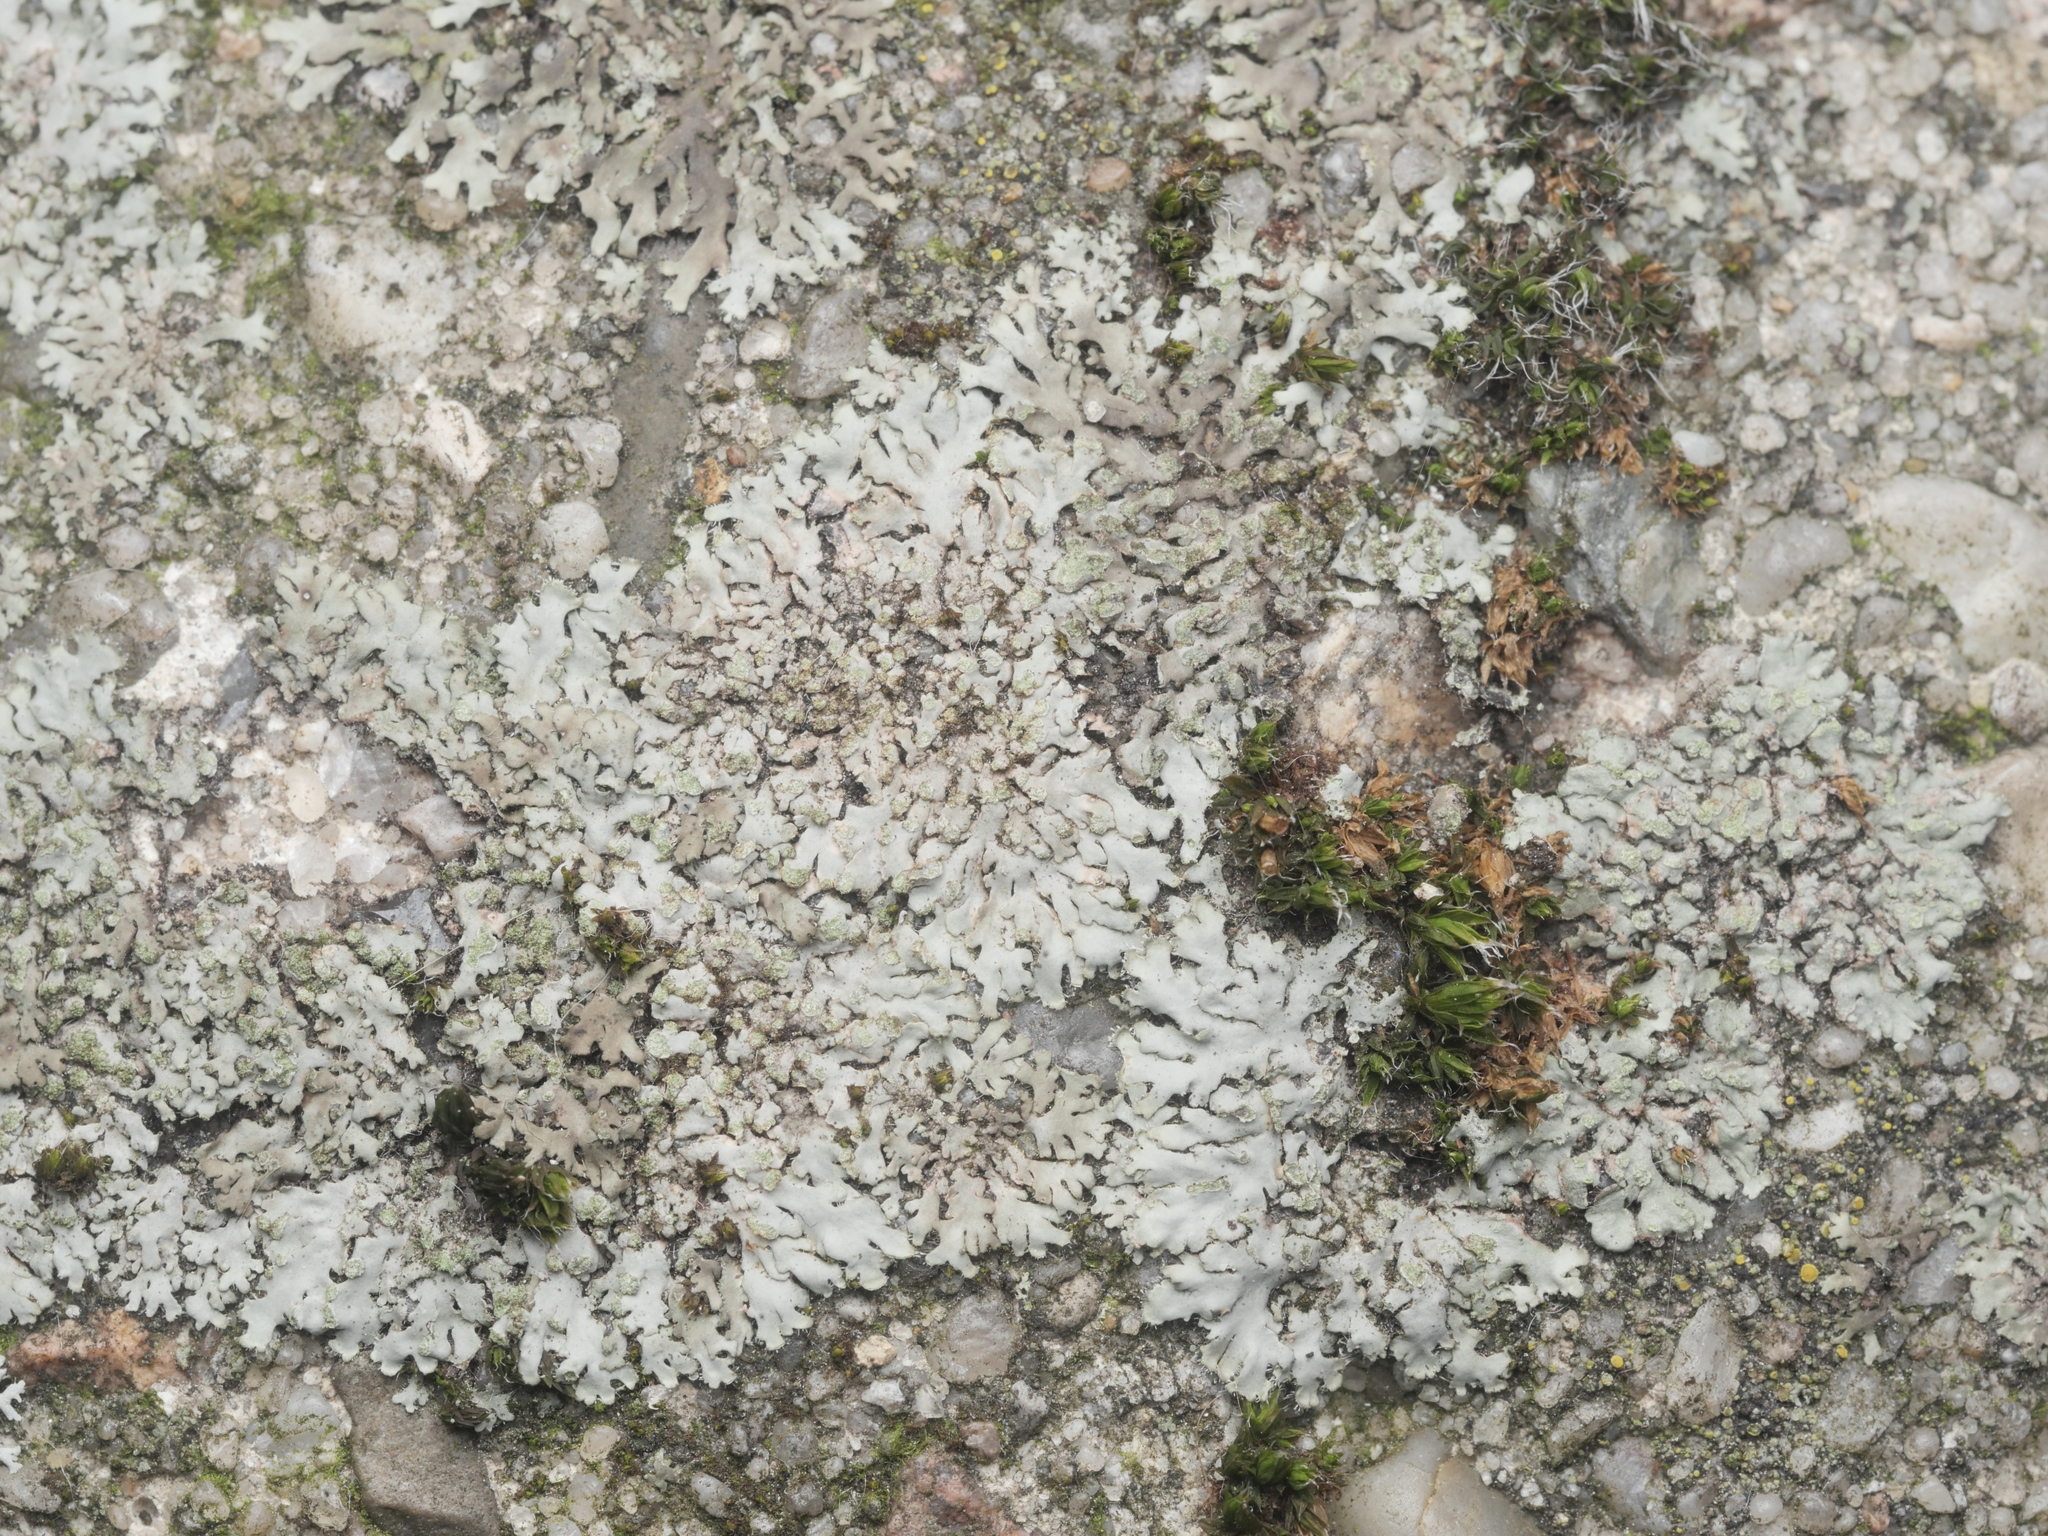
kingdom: Fungi
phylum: Ascomycota
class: Lecanoromycetes
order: Caliciales
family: Physciaceae
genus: Phaeophyscia
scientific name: Phaeophyscia orbicularis
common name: Mealy shadow lichen
